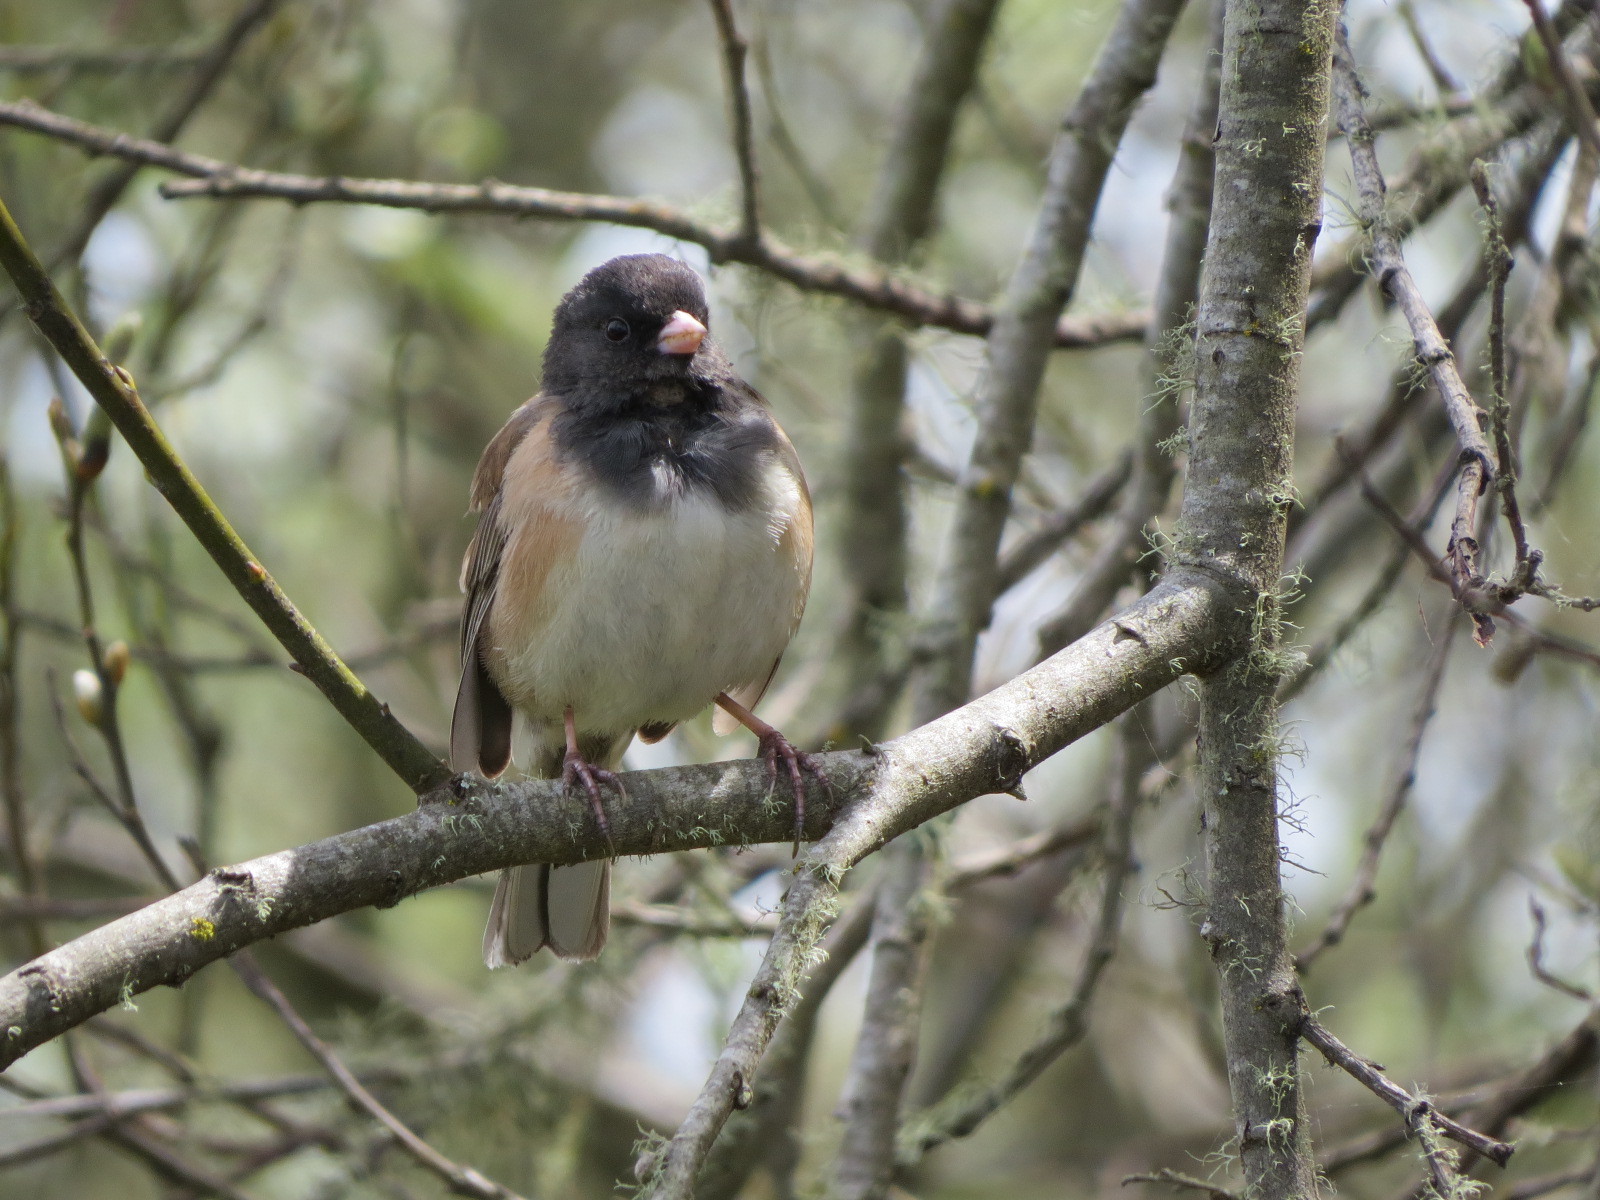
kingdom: Animalia
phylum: Chordata
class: Aves
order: Passeriformes
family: Passerellidae
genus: Junco
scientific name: Junco hyemalis
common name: Dark-eyed junco
